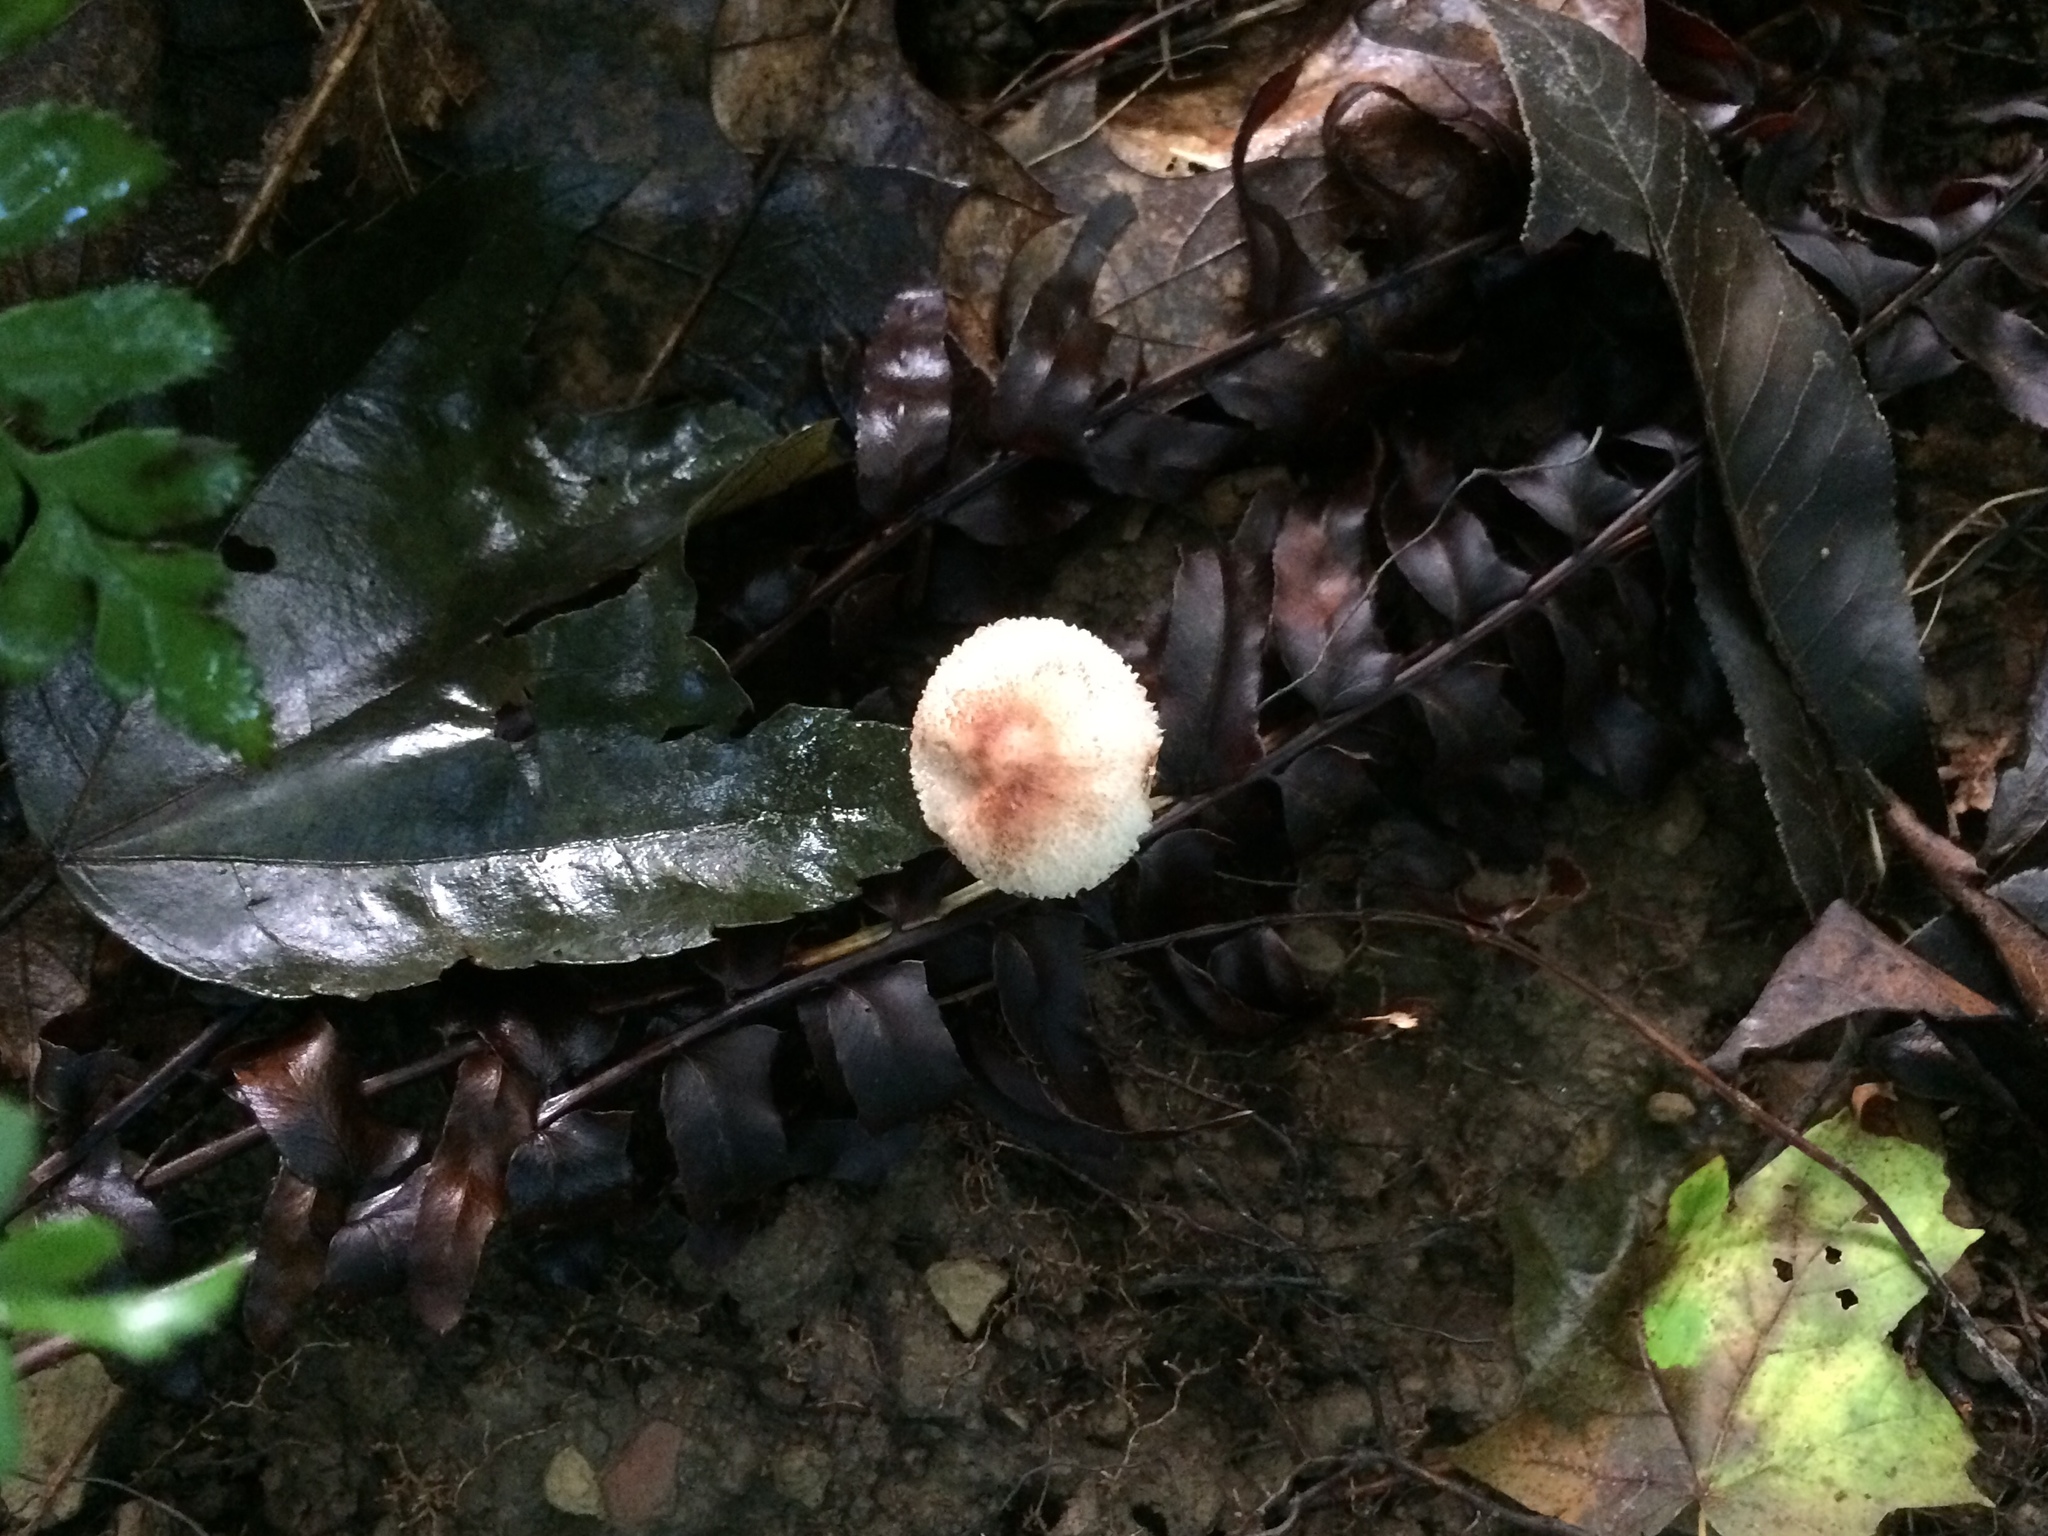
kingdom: Fungi
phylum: Basidiomycota
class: Agaricomycetes
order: Agaricales
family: Agaricaceae
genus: Lepiota
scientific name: Lepiota flammeotincta
